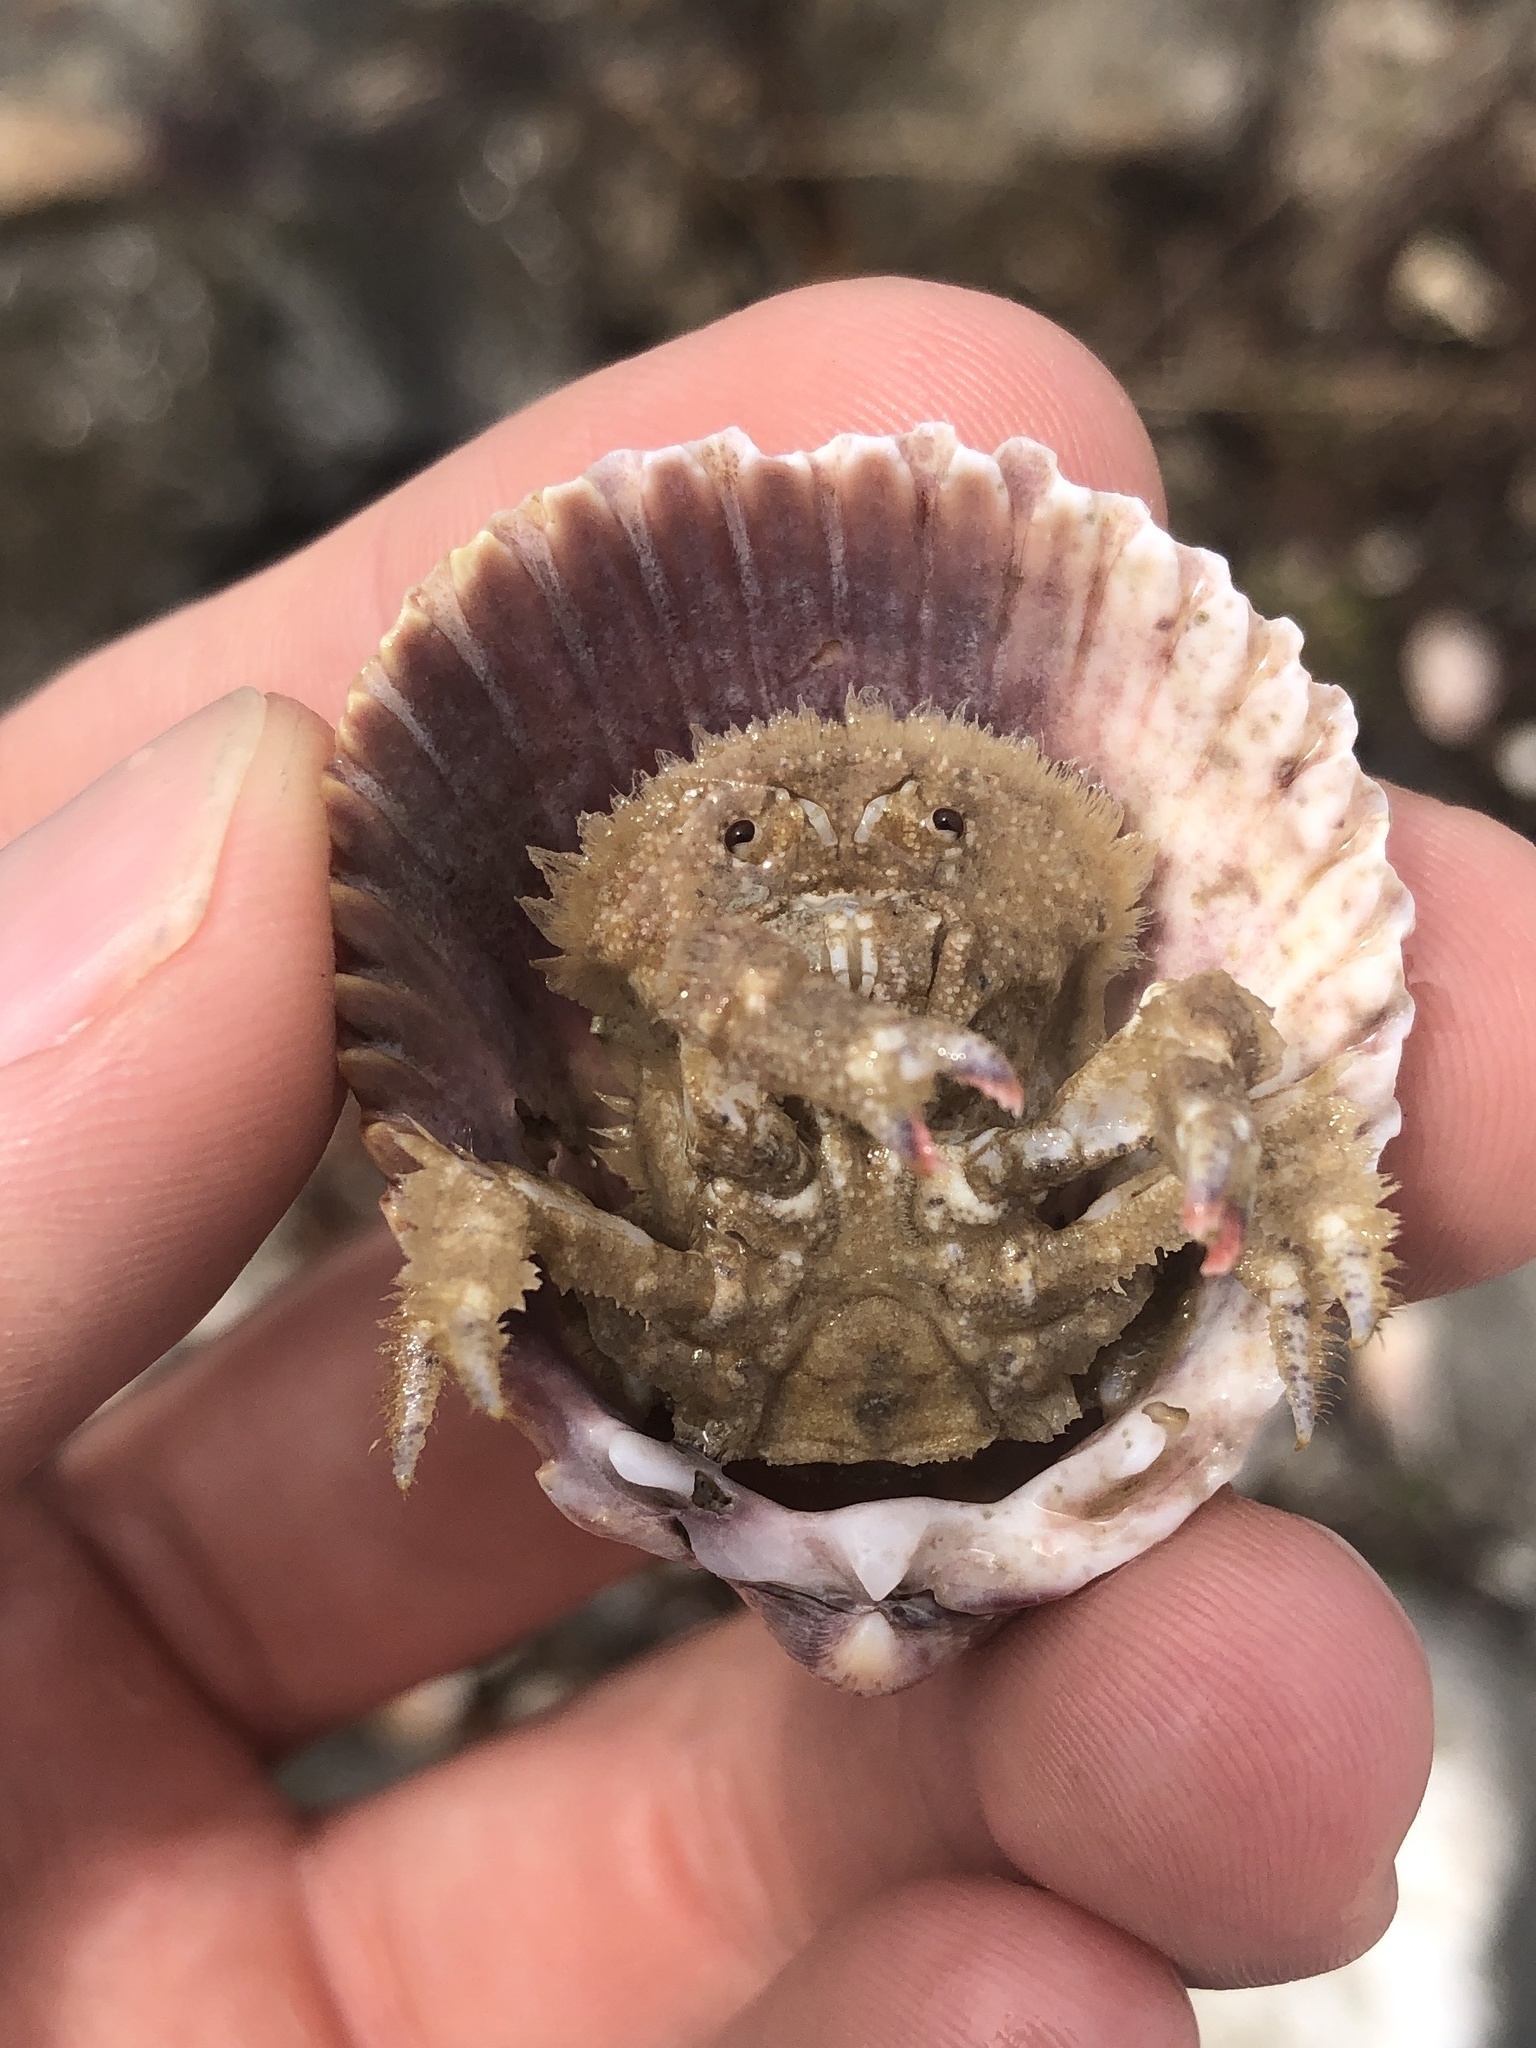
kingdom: Animalia
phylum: Arthropoda
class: Malacostraca
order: Decapoda
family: Dromiidae
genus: Hypoconcha
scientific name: Hypoconcha arcuata
